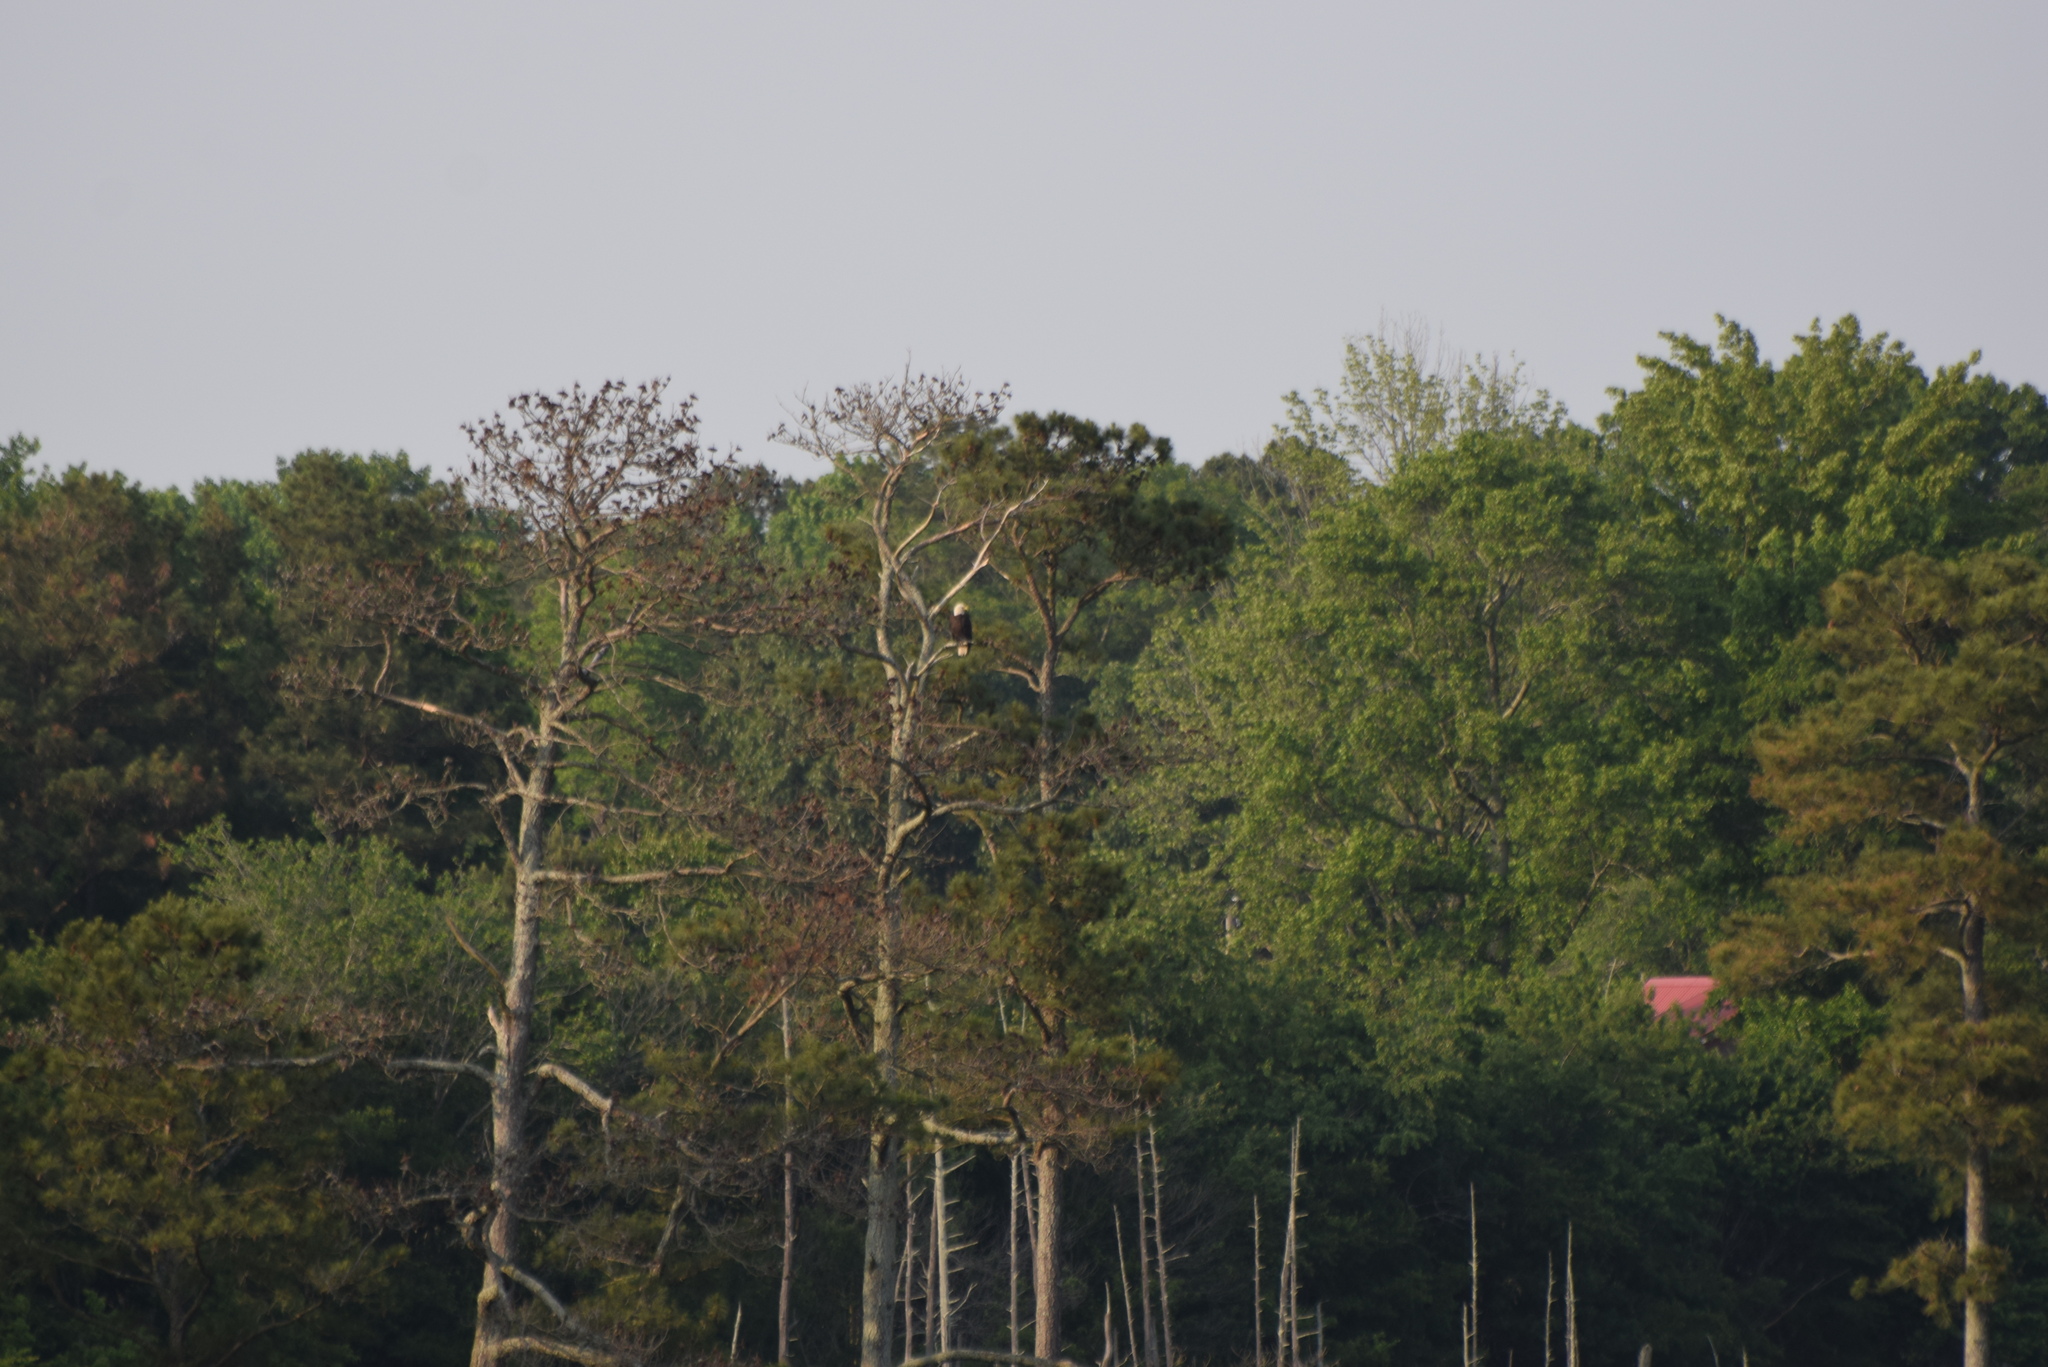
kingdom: Animalia
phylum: Chordata
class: Aves
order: Accipitriformes
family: Accipitridae
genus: Haliaeetus
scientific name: Haliaeetus leucocephalus
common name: Bald eagle
